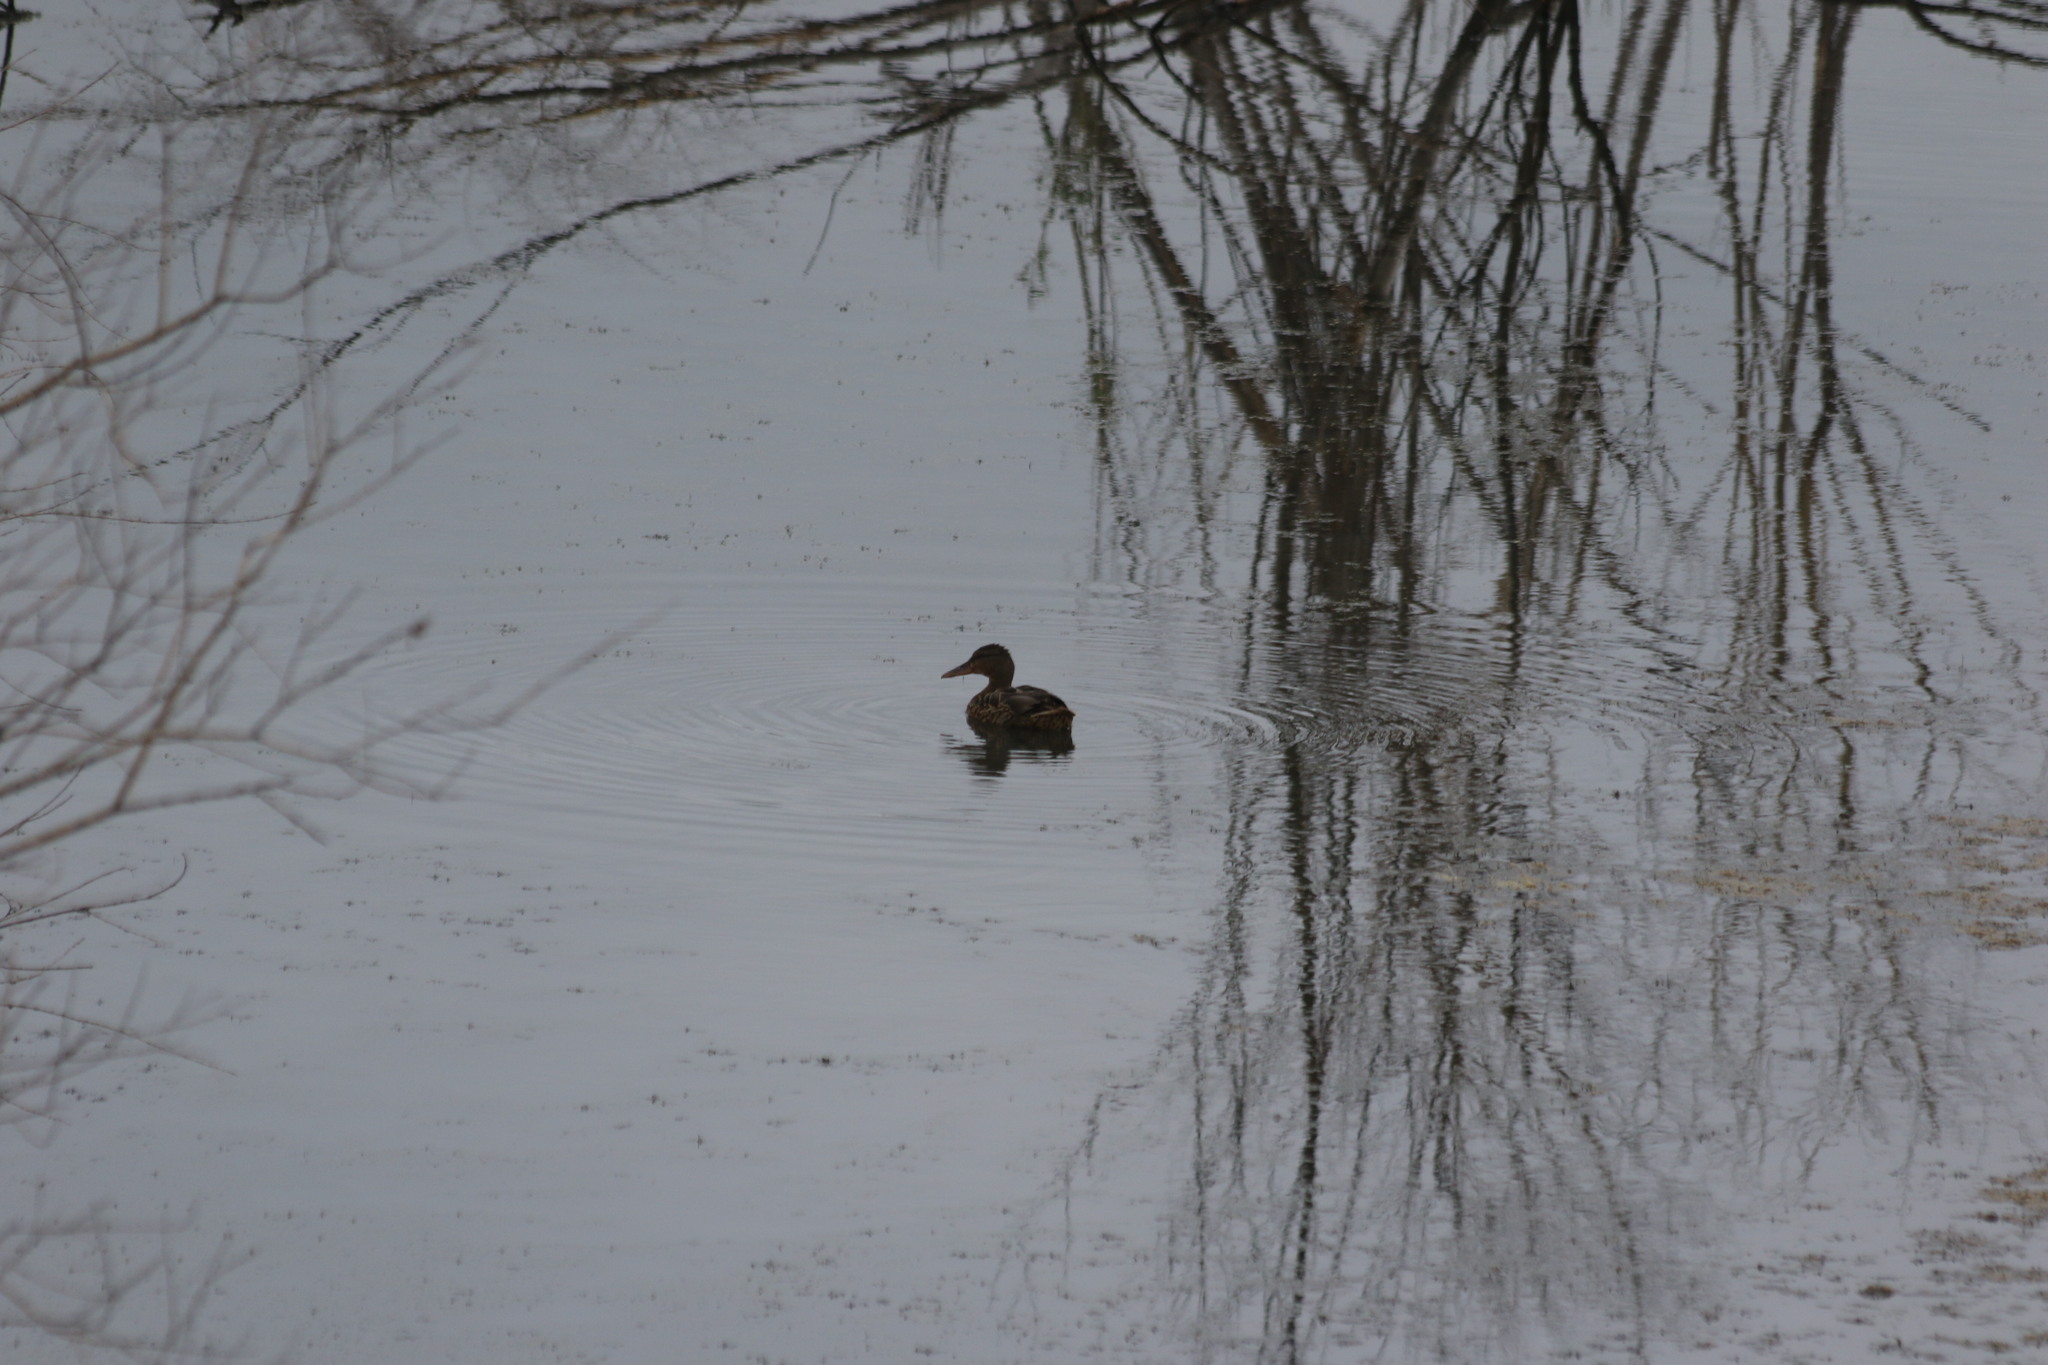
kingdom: Animalia
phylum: Chordata
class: Aves
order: Anseriformes
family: Anatidae
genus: Anas
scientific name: Anas platyrhynchos
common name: Mallard
